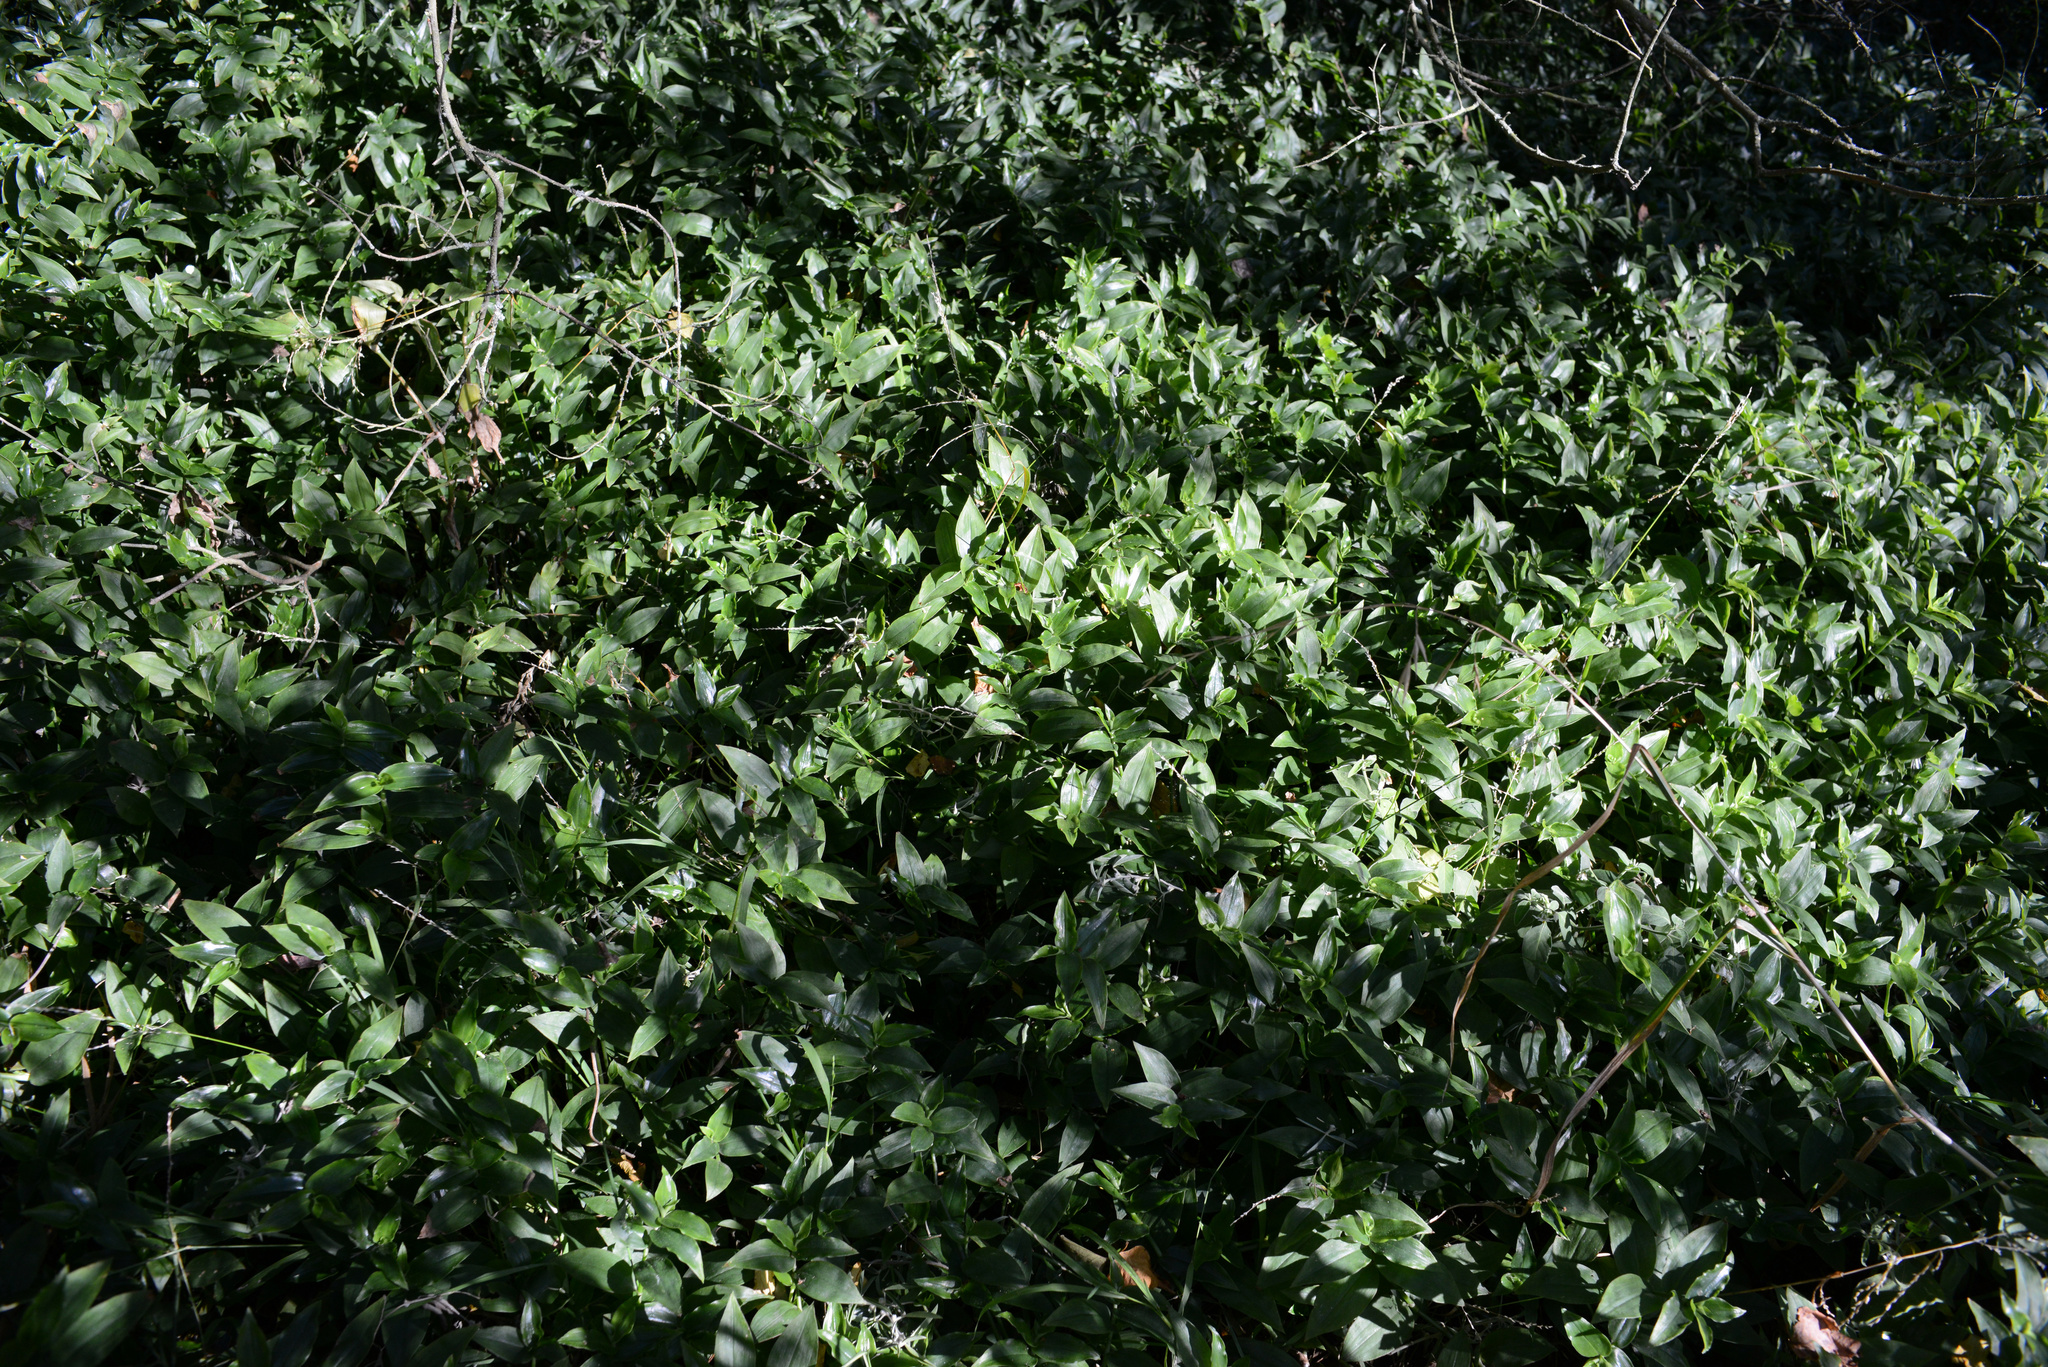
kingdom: Plantae
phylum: Tracheophyta
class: Liliopsida
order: Commelinales
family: Commelinaceae
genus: Tradescantia
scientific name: Tradescantia fluminensis
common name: Wandering-jew
